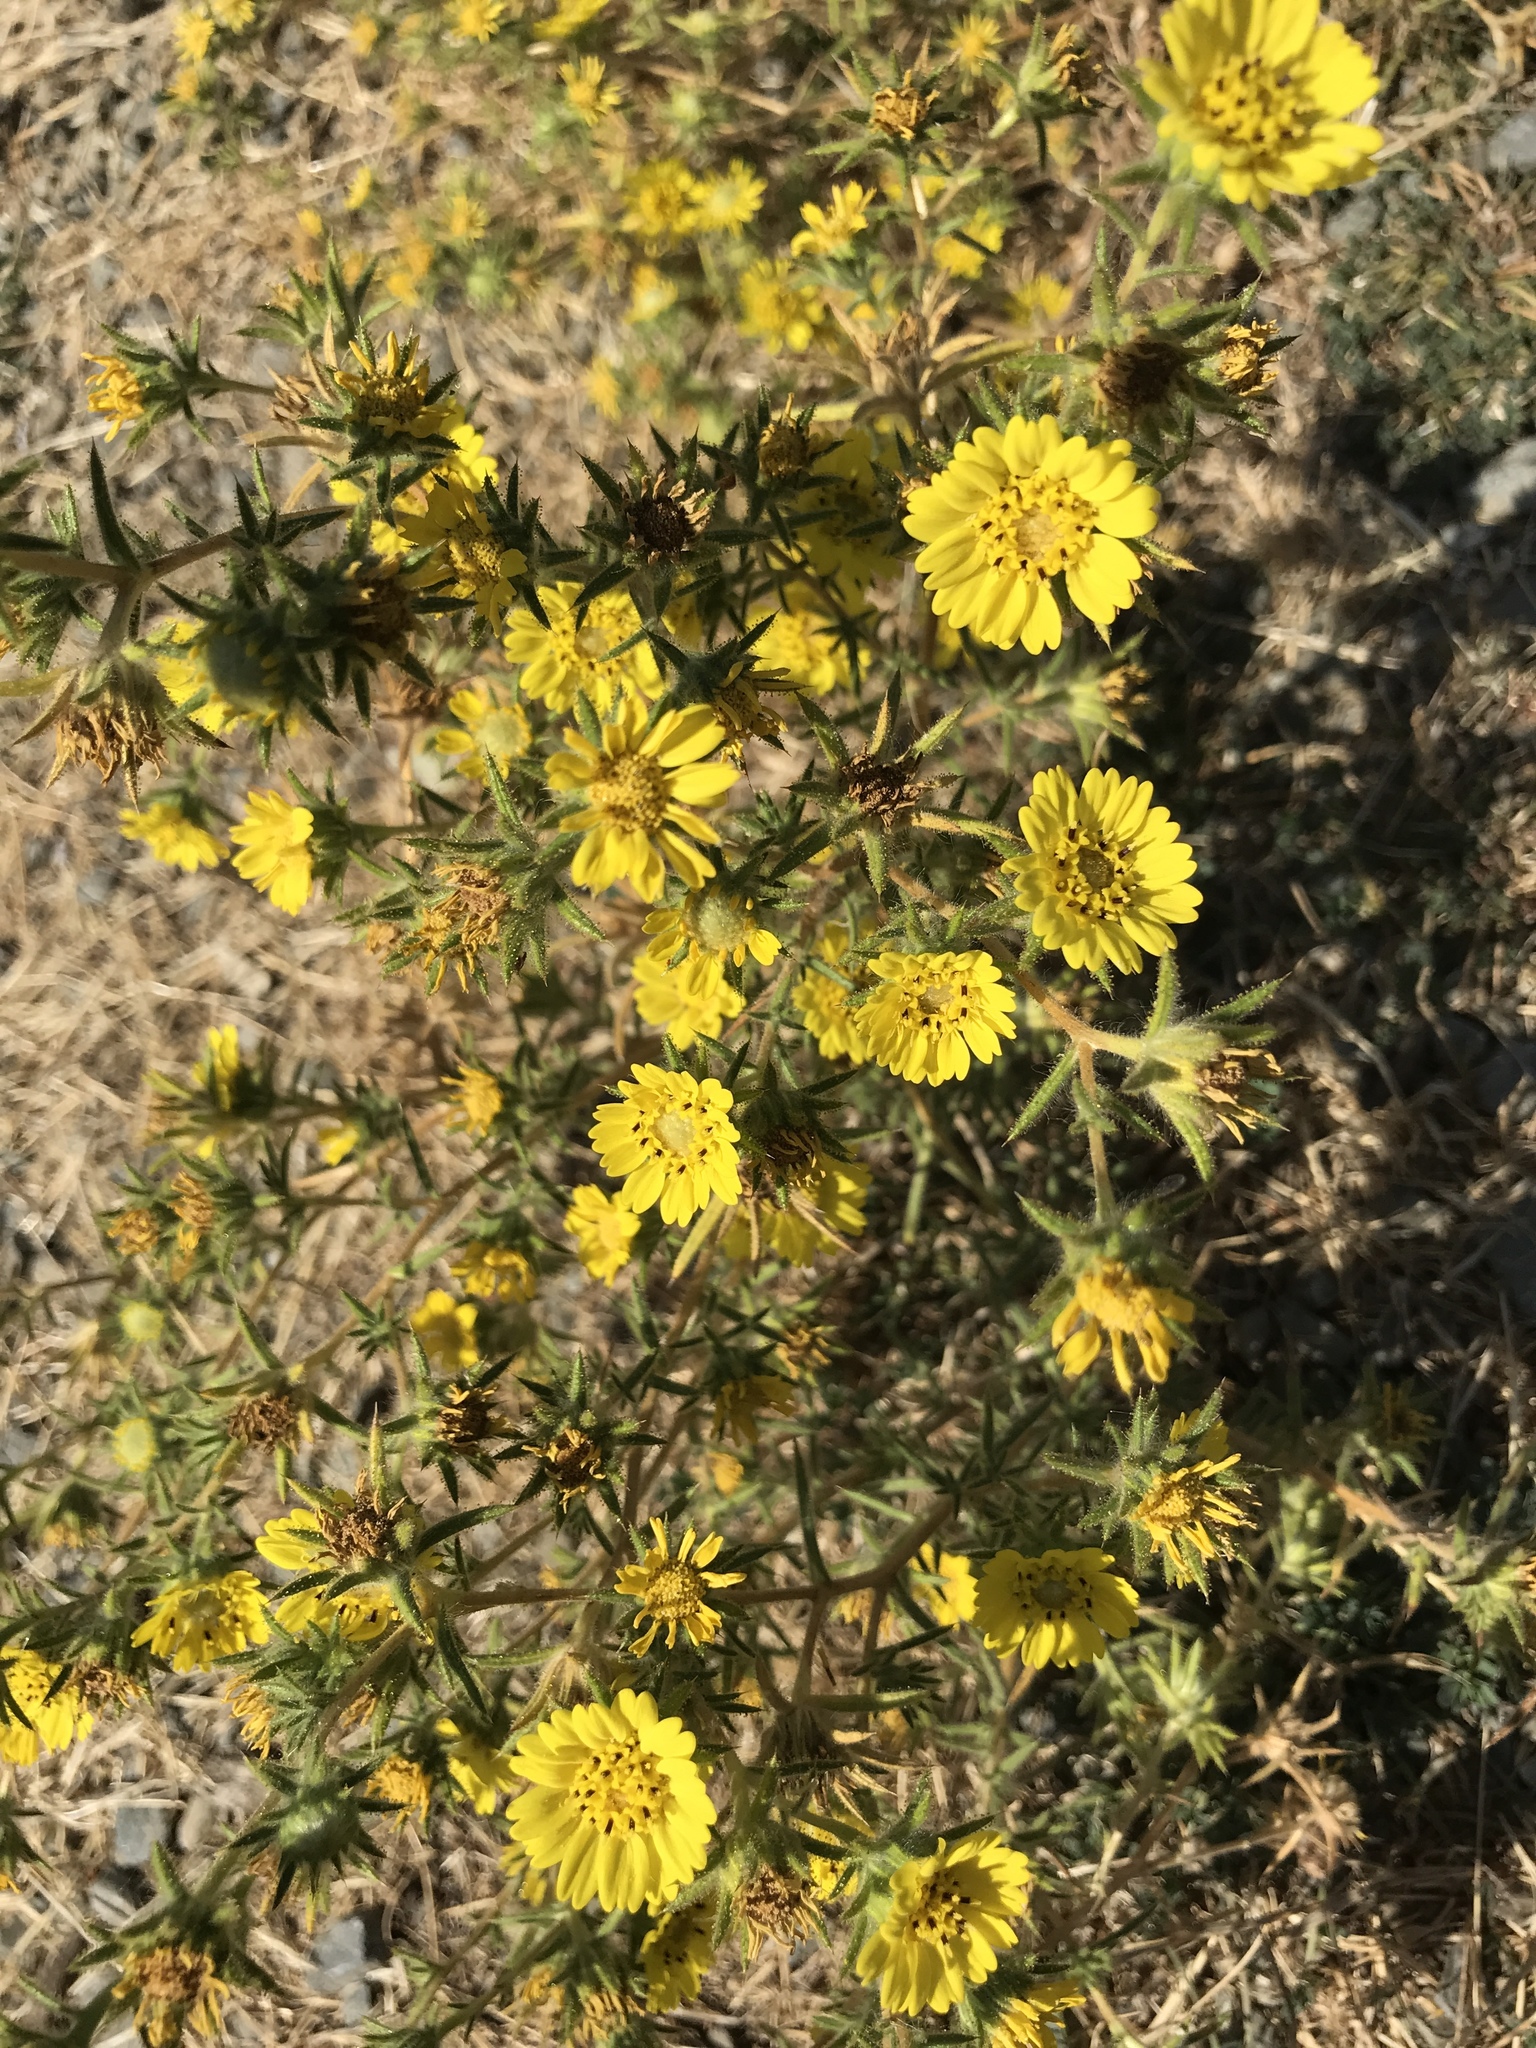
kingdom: Plantae
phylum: Tracheophyta
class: Magnoliopsida
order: Asterales
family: Asteraceae
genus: Centromadia
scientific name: Centromadia fitchii
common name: Fitch's spikeweed
